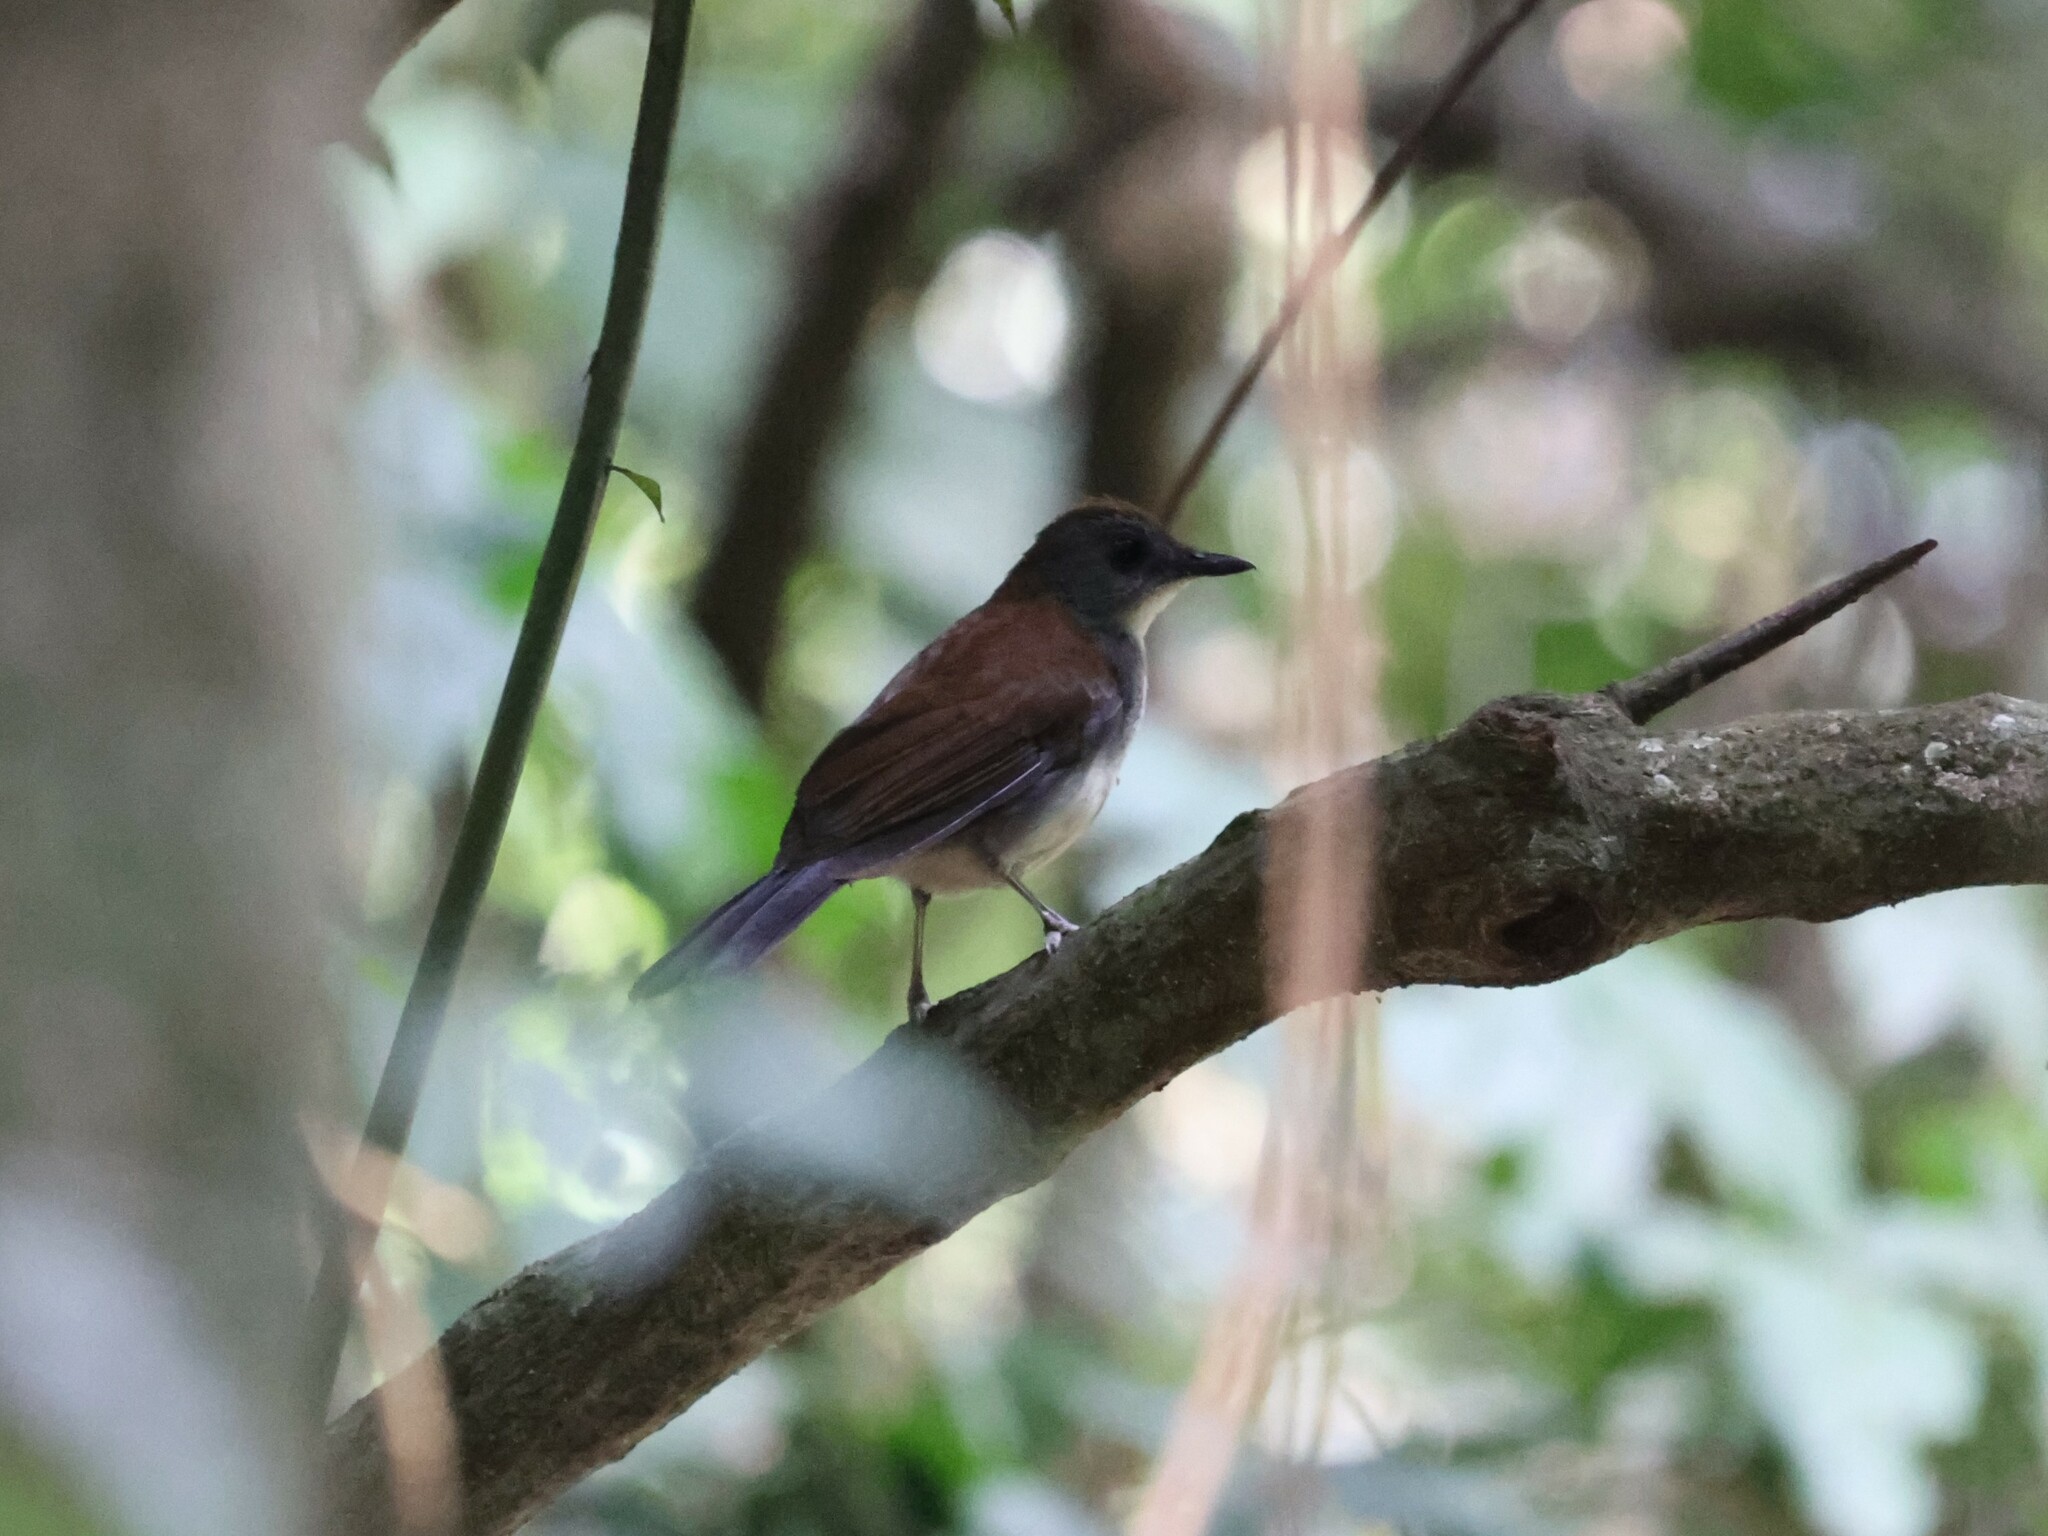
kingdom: Animalia
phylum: Chordata
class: Aves
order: Passeriformes
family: Turdidae
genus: Alethe
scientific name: Alethe castanea
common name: Fire-crested alethe
